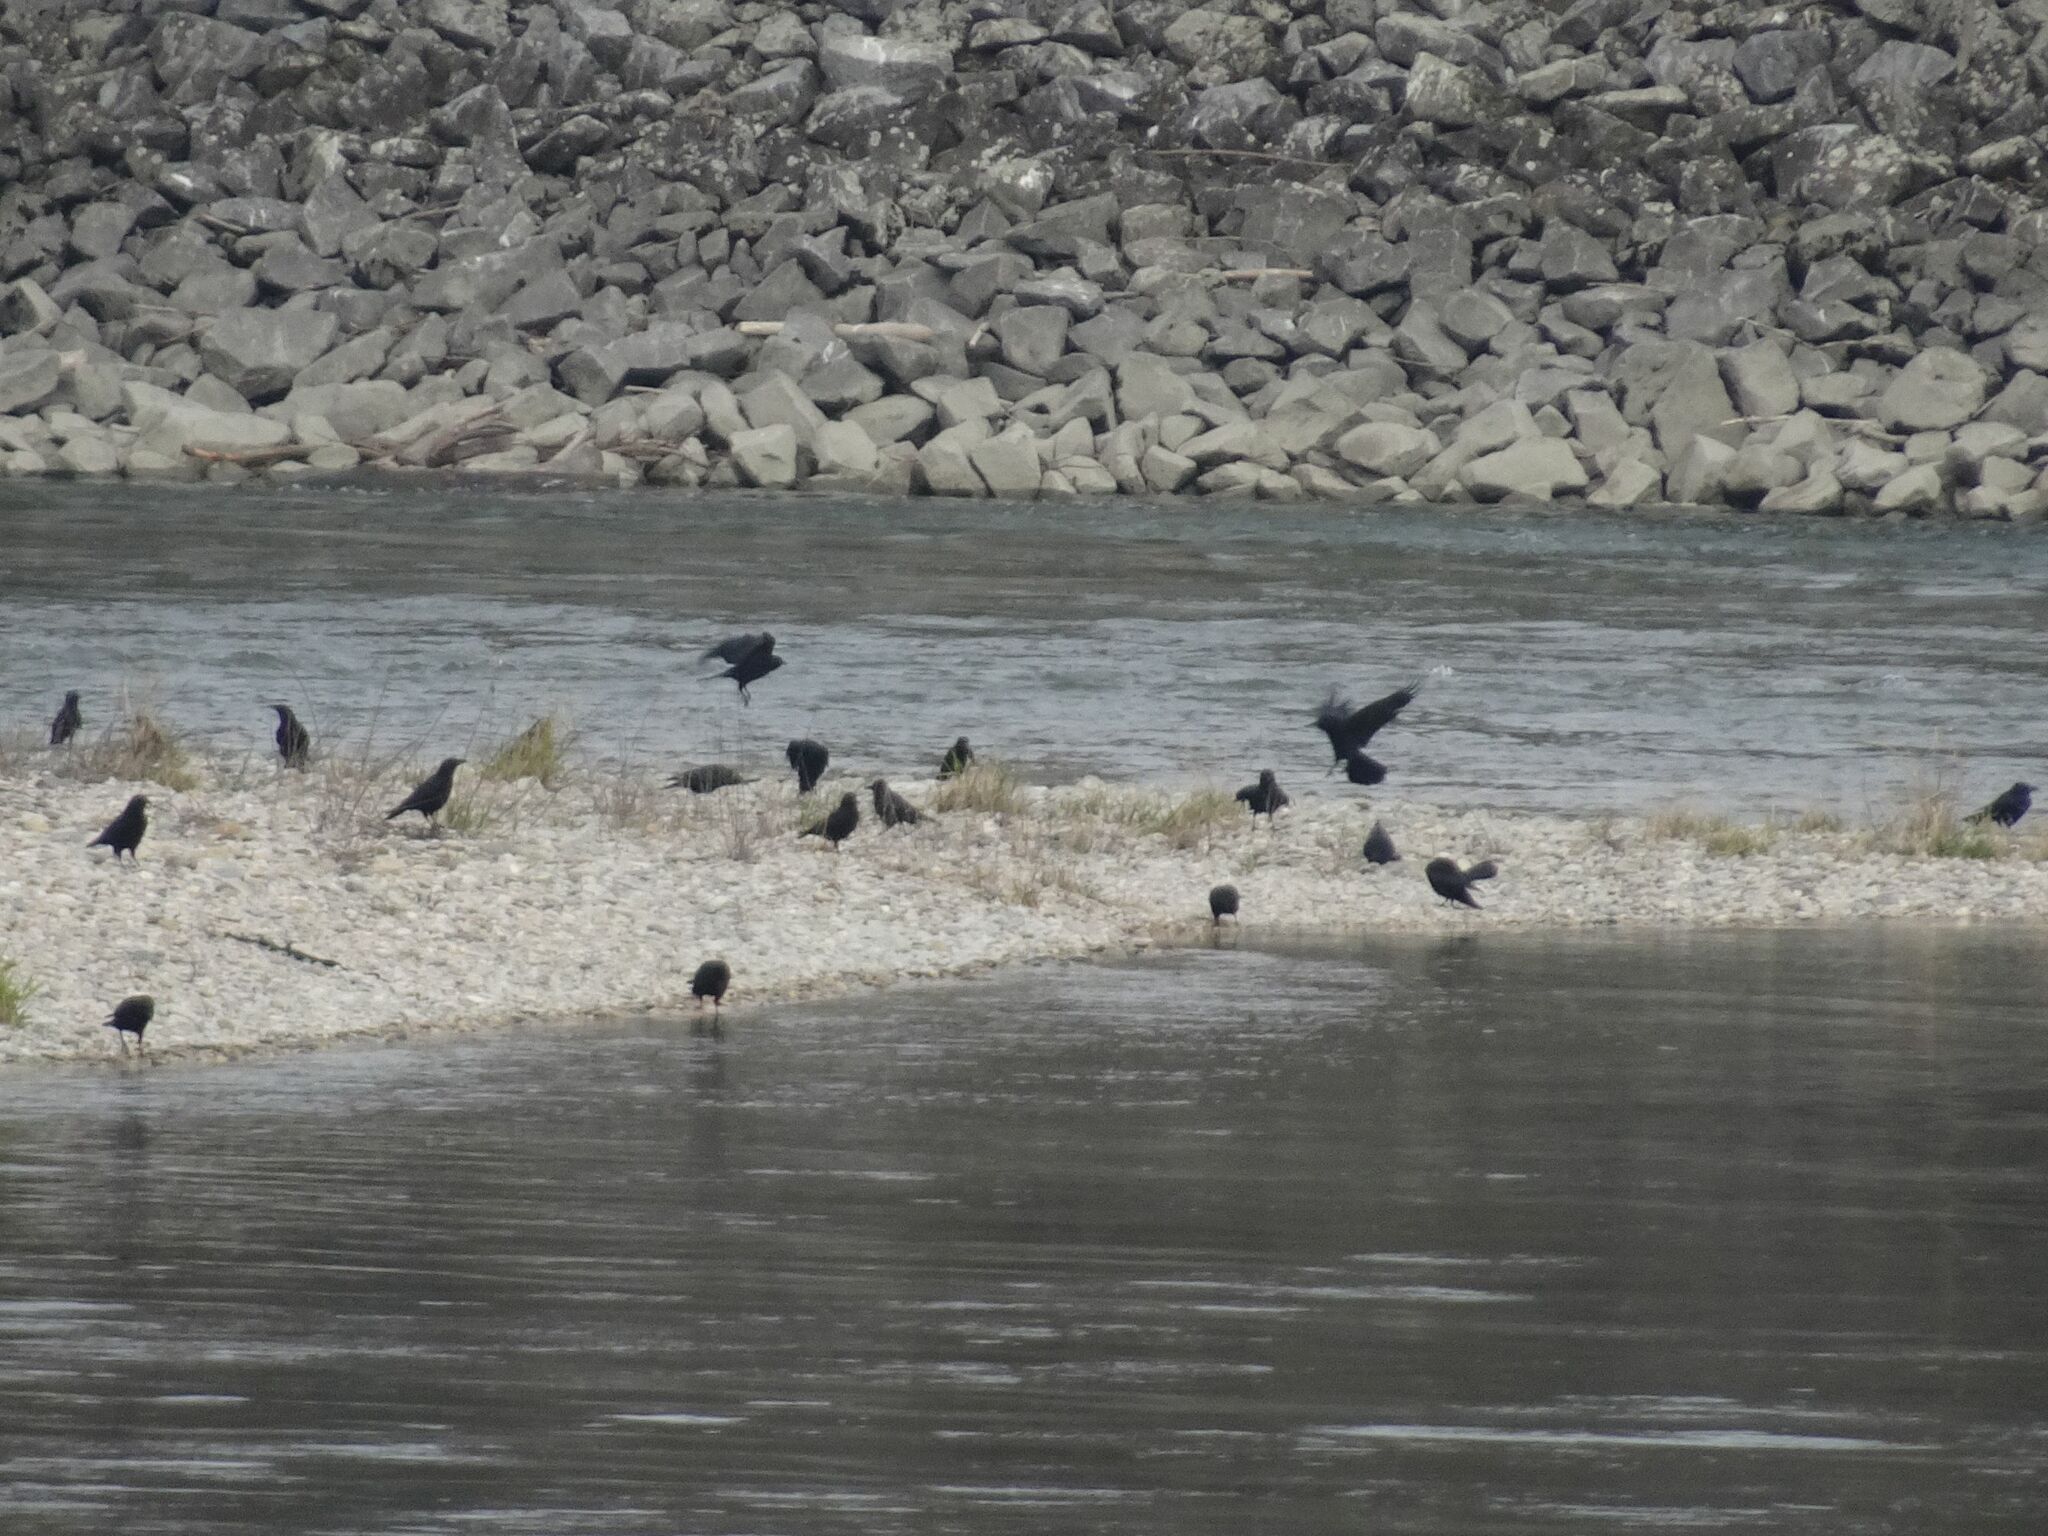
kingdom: Animalia
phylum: Chordata
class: Aves
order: Passeriformes
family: Corvidae
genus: Corvus
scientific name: Corvus corone
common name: Carrion crow
